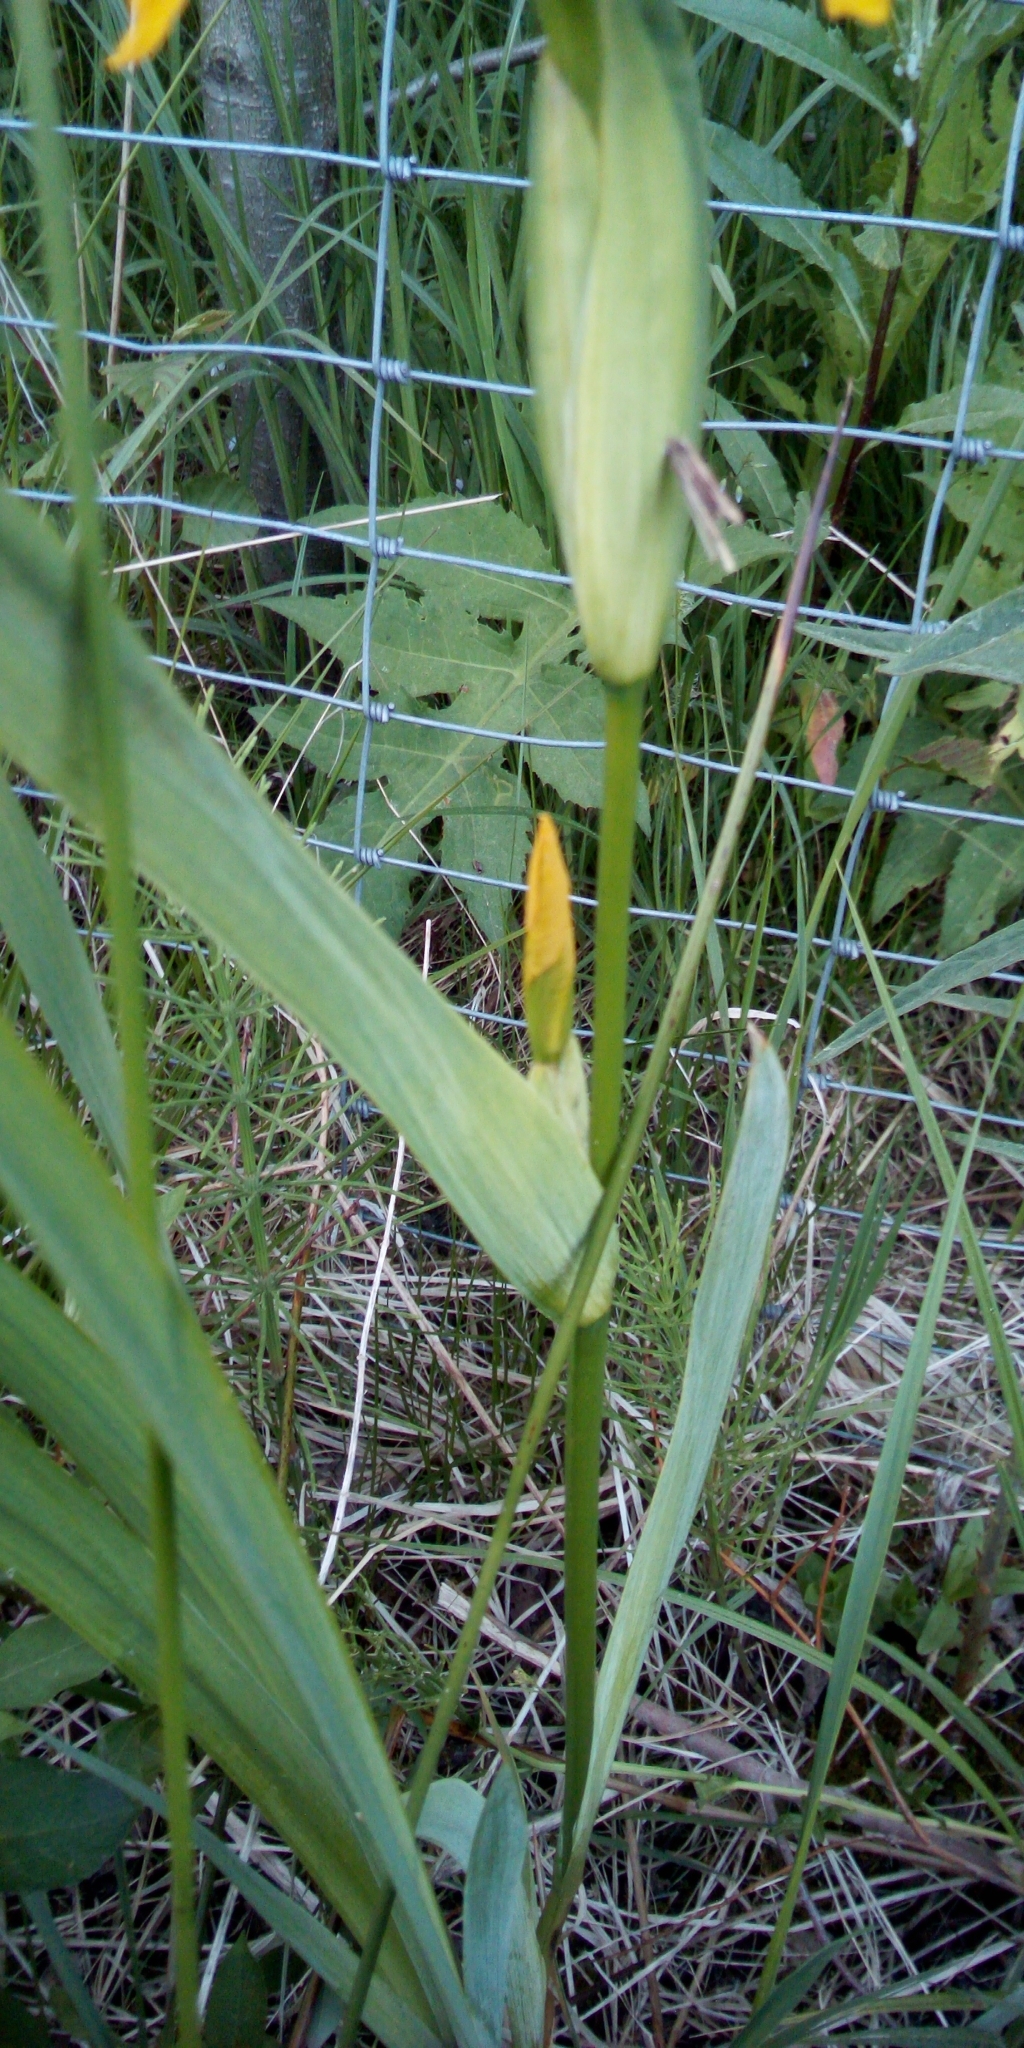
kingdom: Plantae
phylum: Tracheophyta
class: Liliopsida
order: Asparagales
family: Iridaceae
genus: Iris
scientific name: Iris pseudacorus
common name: Yellow flag
